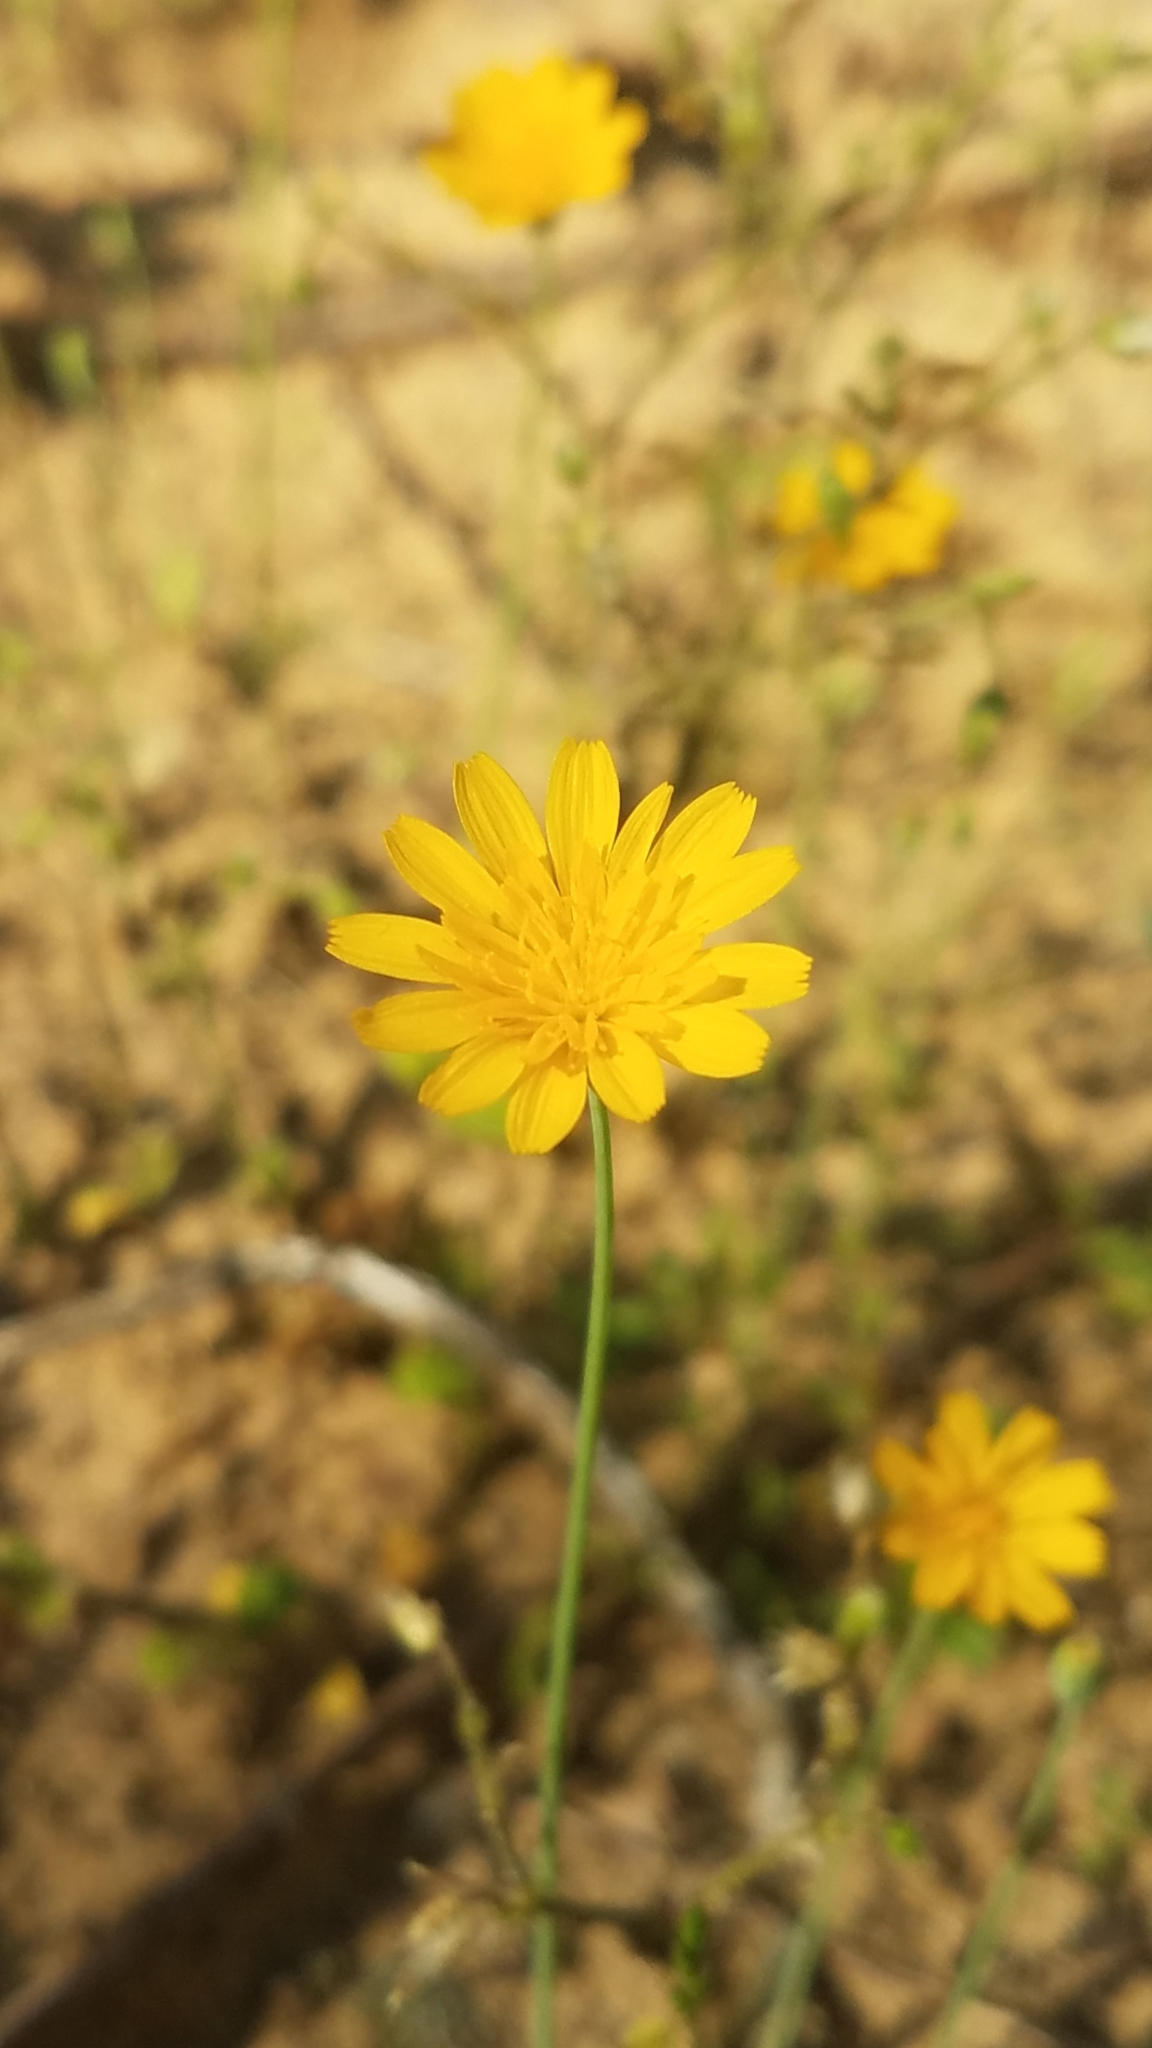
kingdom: Plantae
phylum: Tracheophyta
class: Magnoliopsida
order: Asterales
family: Asteraceae
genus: Krigia
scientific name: Krigia virginica
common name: Virginia dwarf-dandelion
